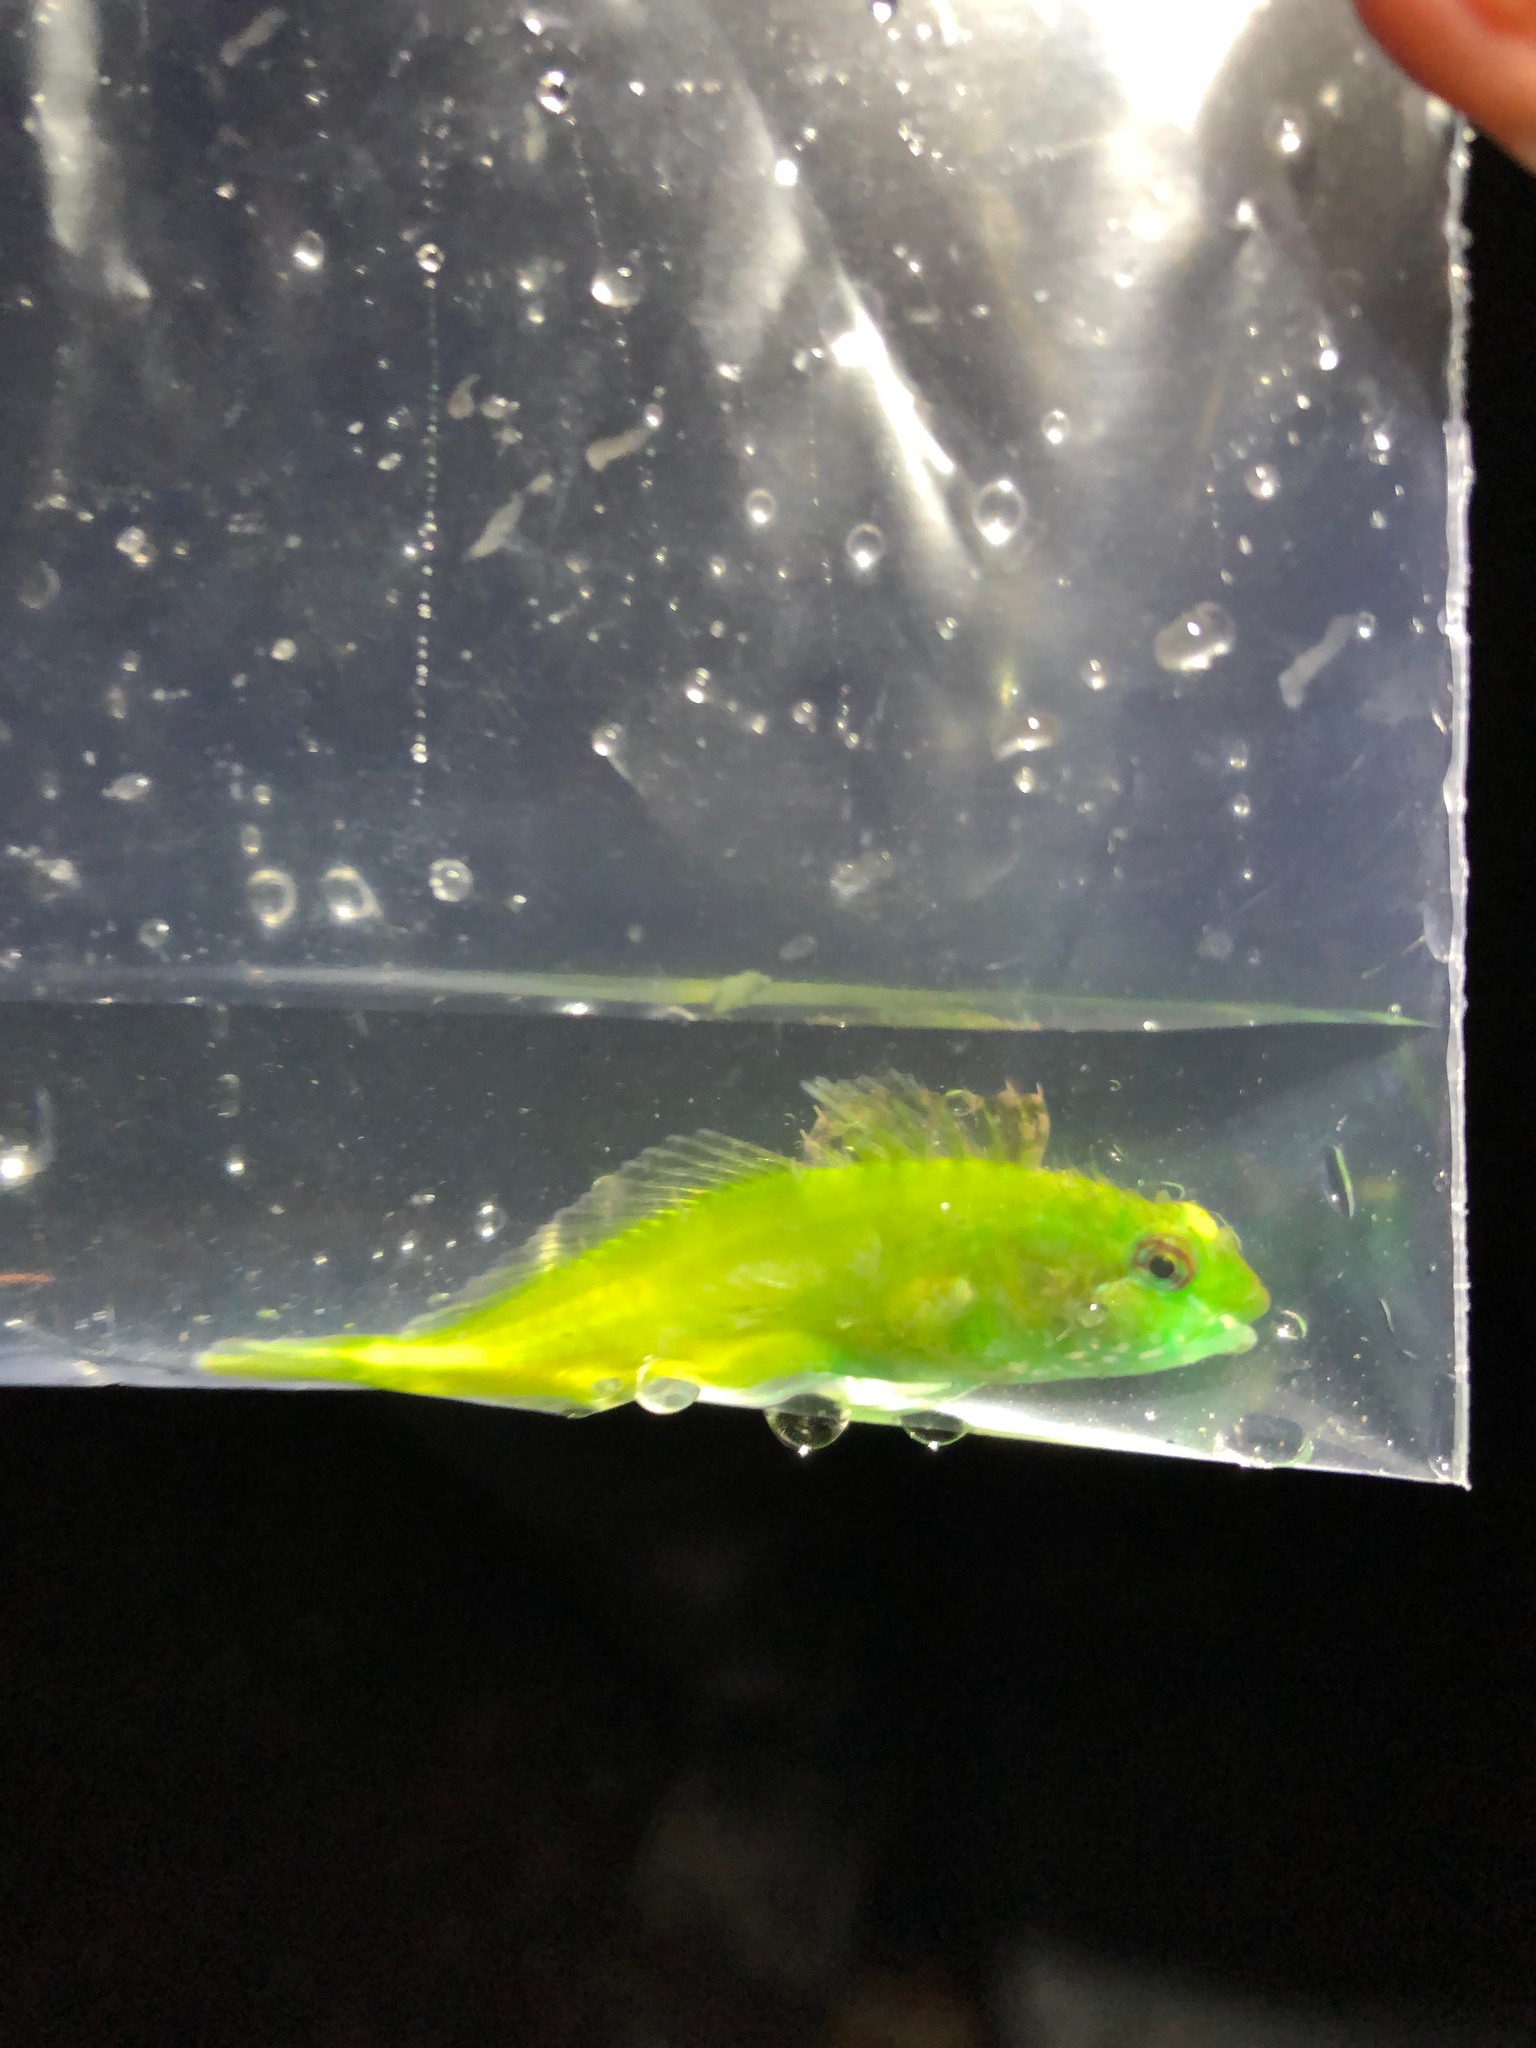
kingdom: Animalia
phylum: Chordata
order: Scorpaeniformes
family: Cottidae
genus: Oligocottus
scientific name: Oligocottus snyderi
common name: Fluffy sculpin
